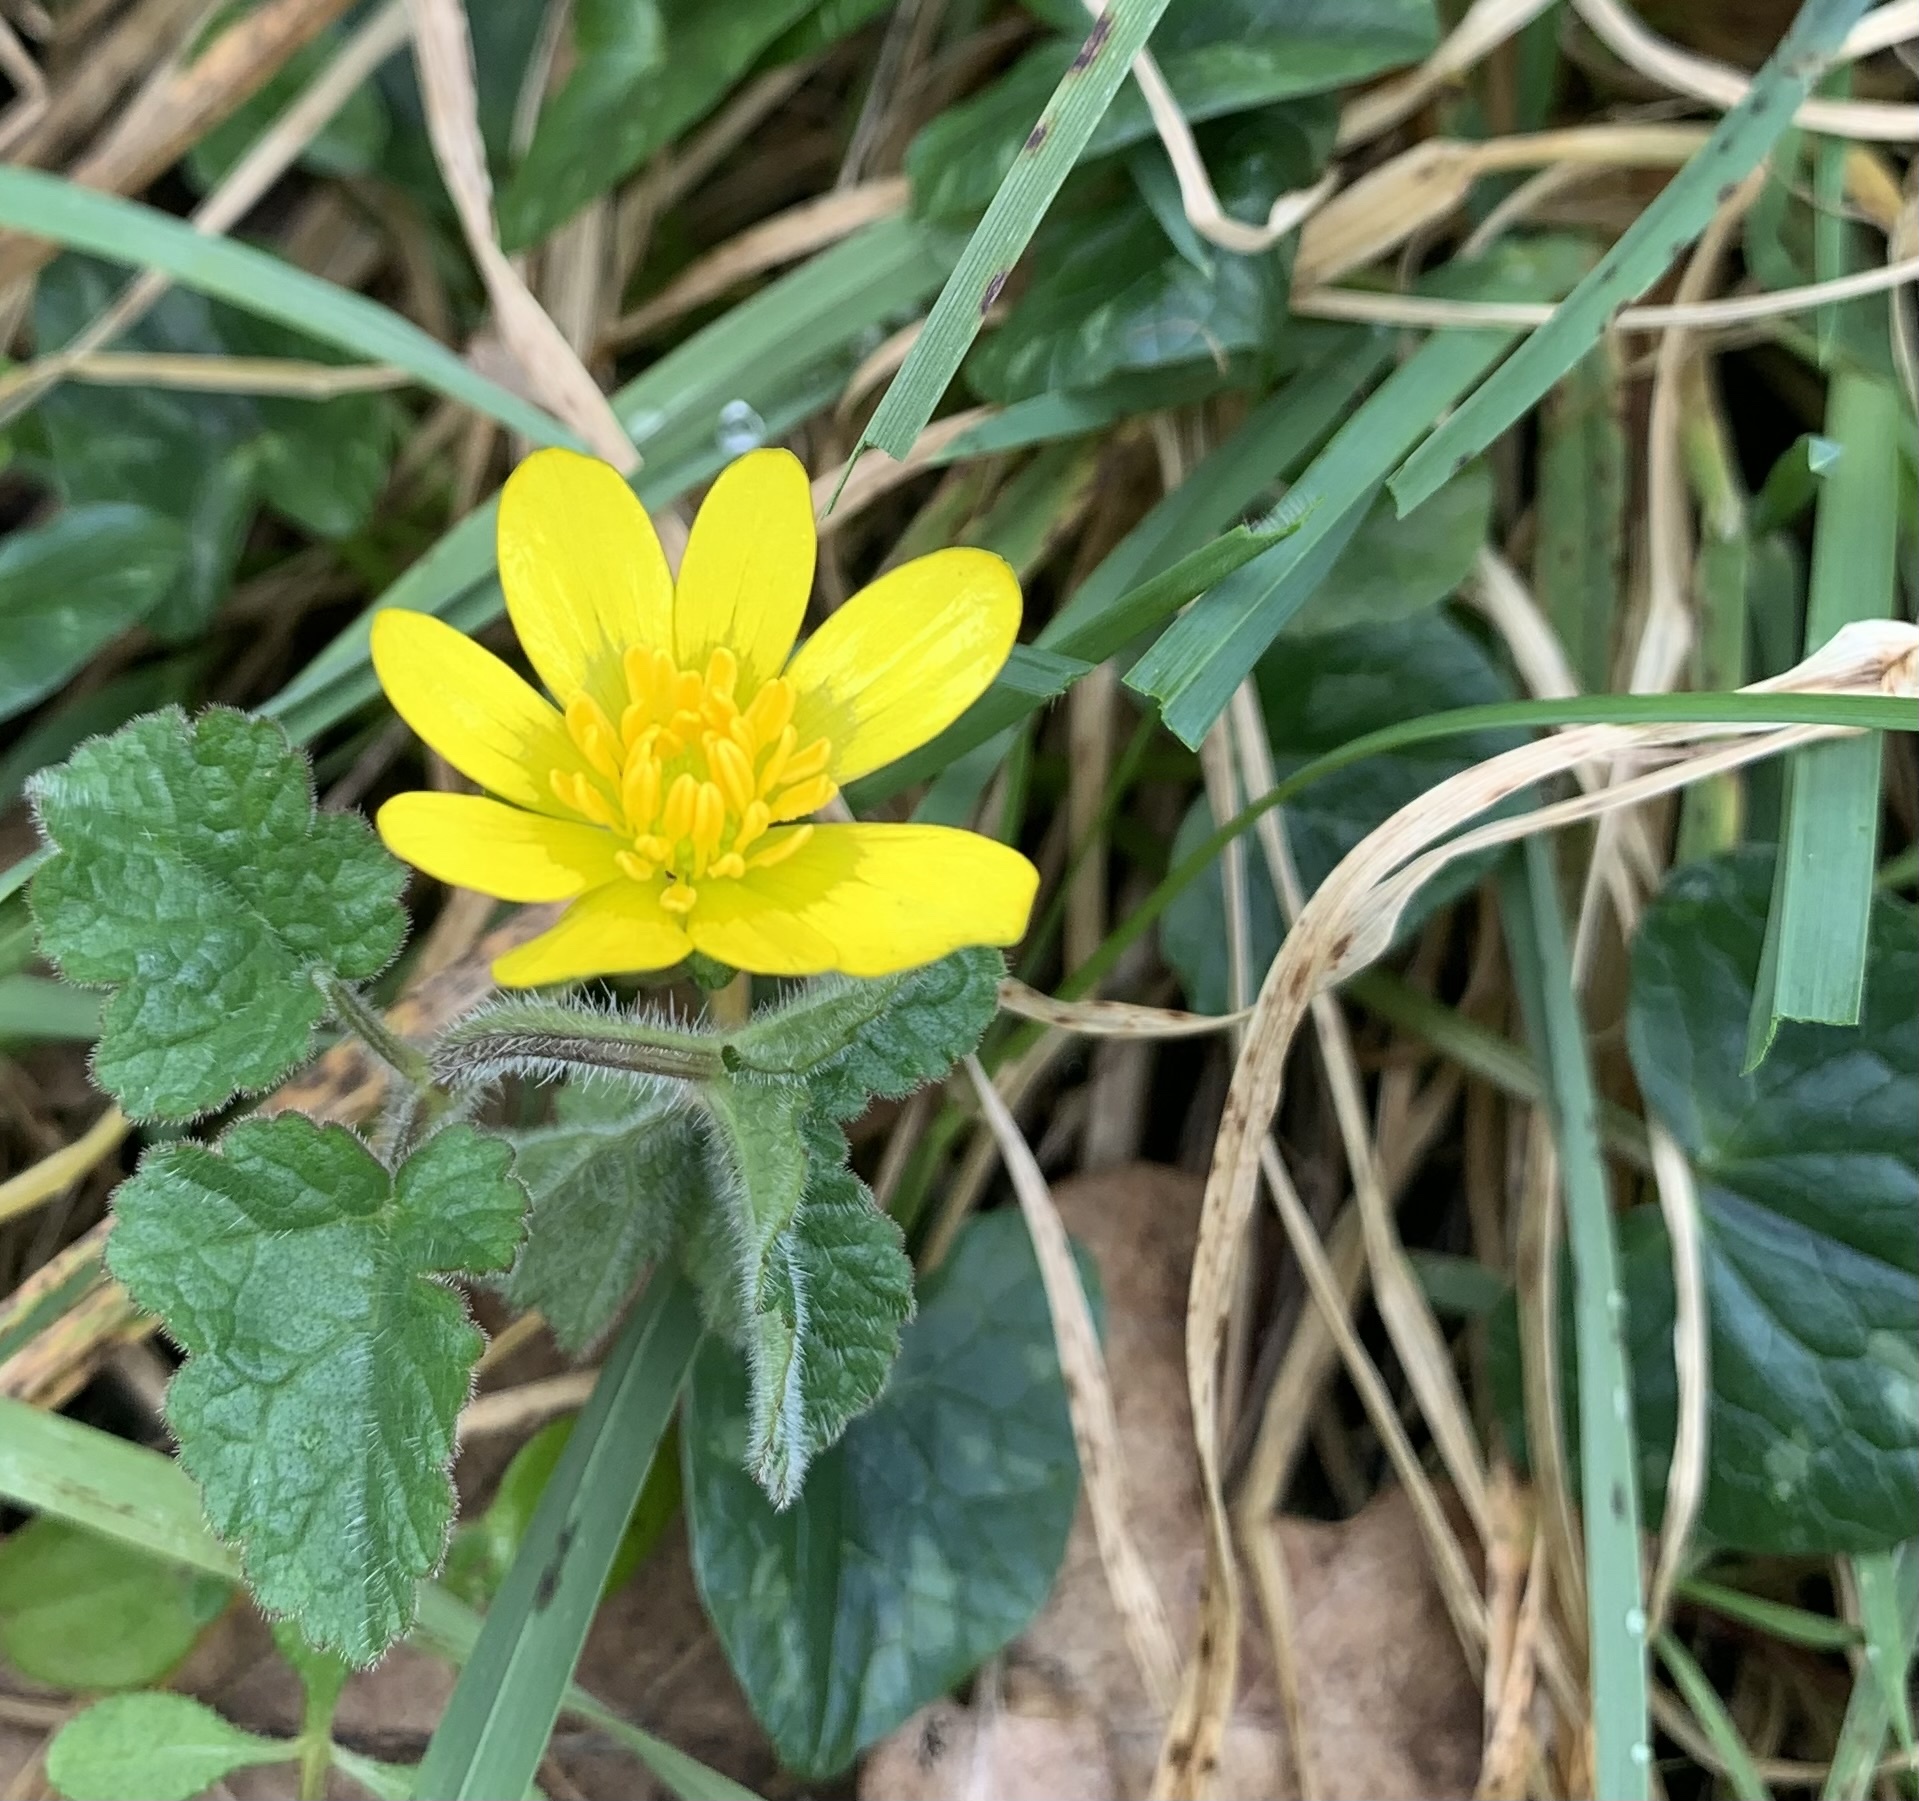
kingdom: Plantae
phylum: Tracheophyta
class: Magnoliopsida
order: Ranunculales
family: Ranunculaceae
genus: Ficaria
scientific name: Ficaria verna
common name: Lesser celandine
